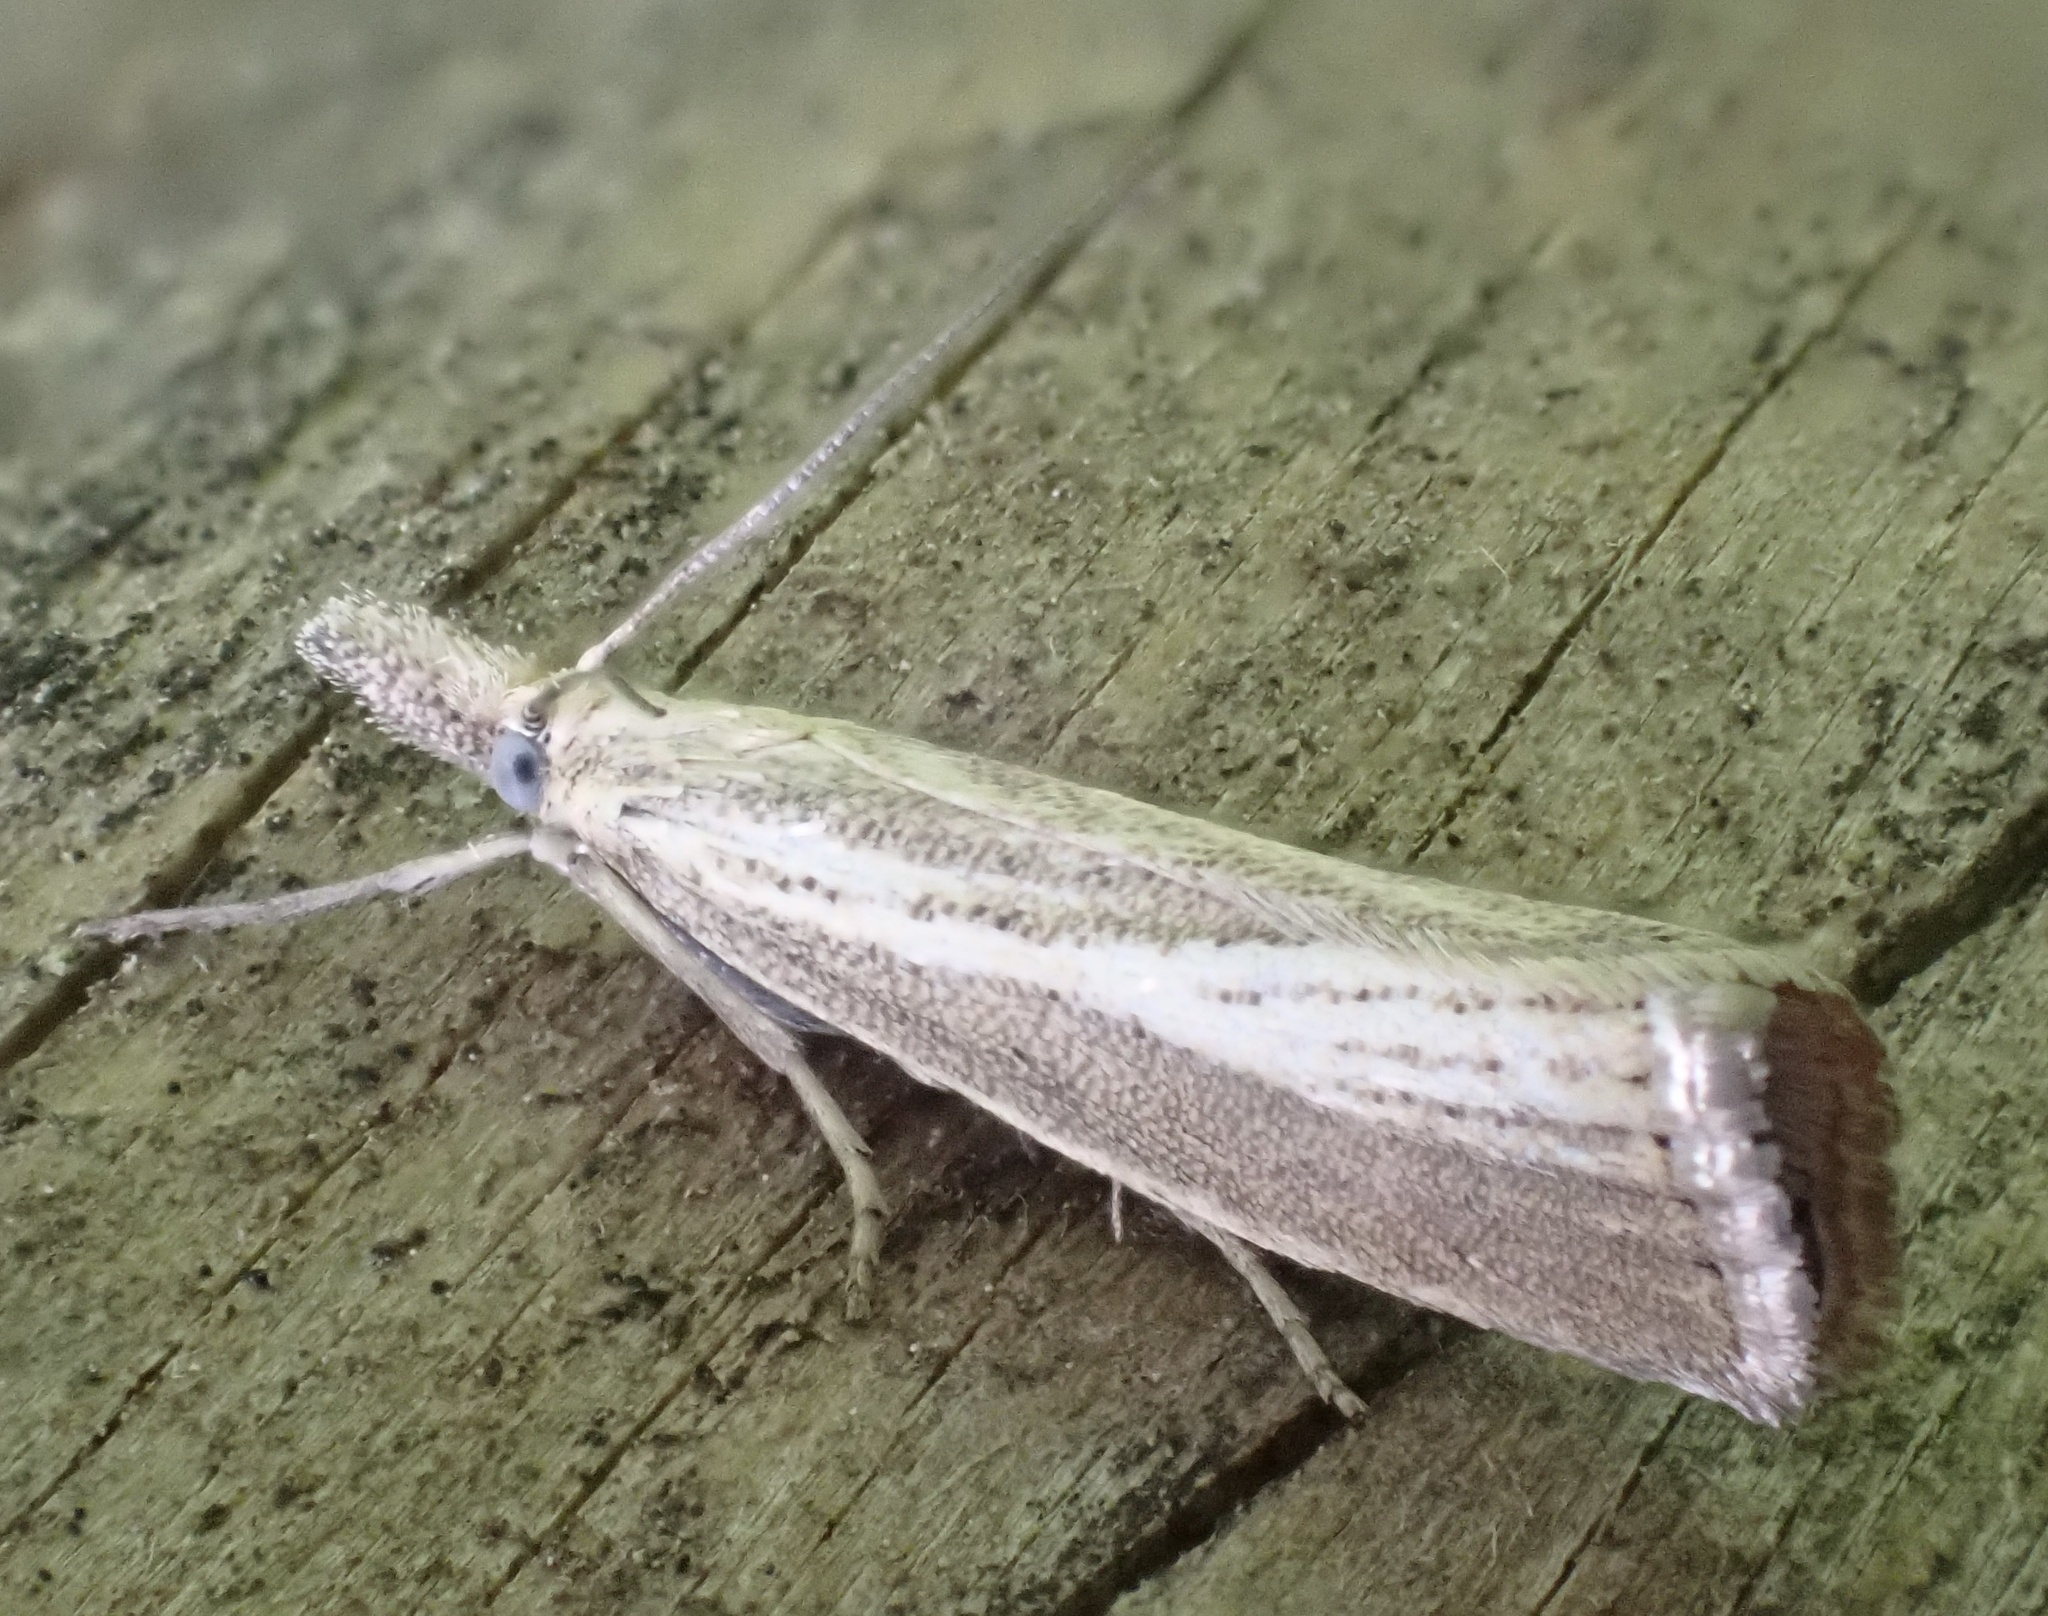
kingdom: Animalia
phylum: Arthropoda
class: Insecta
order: Lepidoptera
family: Crambidae
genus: Agriphila
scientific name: Agriphila straminella
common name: Straw grass-veneer
